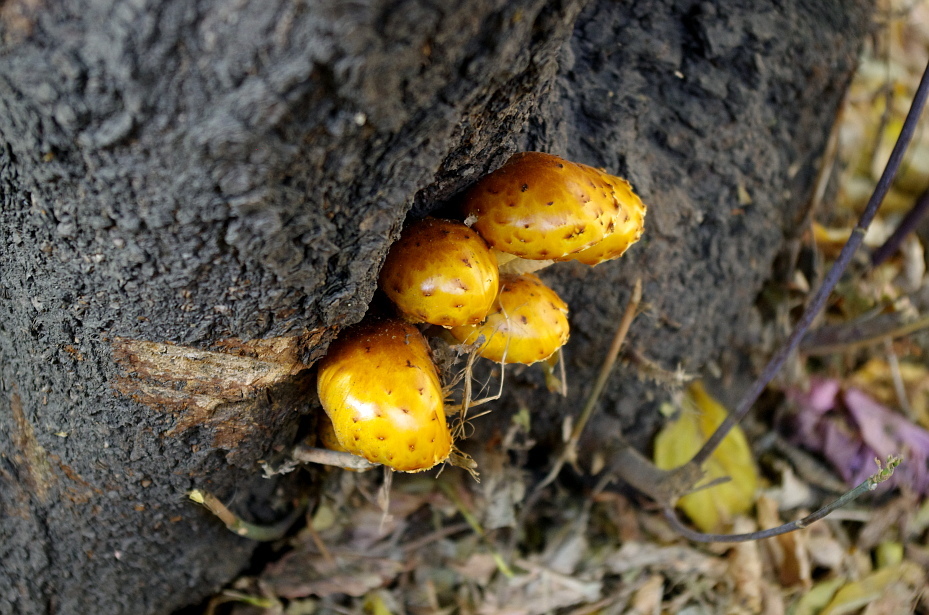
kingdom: Fungi
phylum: Basidiomycota
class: Agaricomycetes
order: Agaricales
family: Strophariaceae
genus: Pholiota
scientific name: Pholiota aurivella
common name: Golden scalycap
